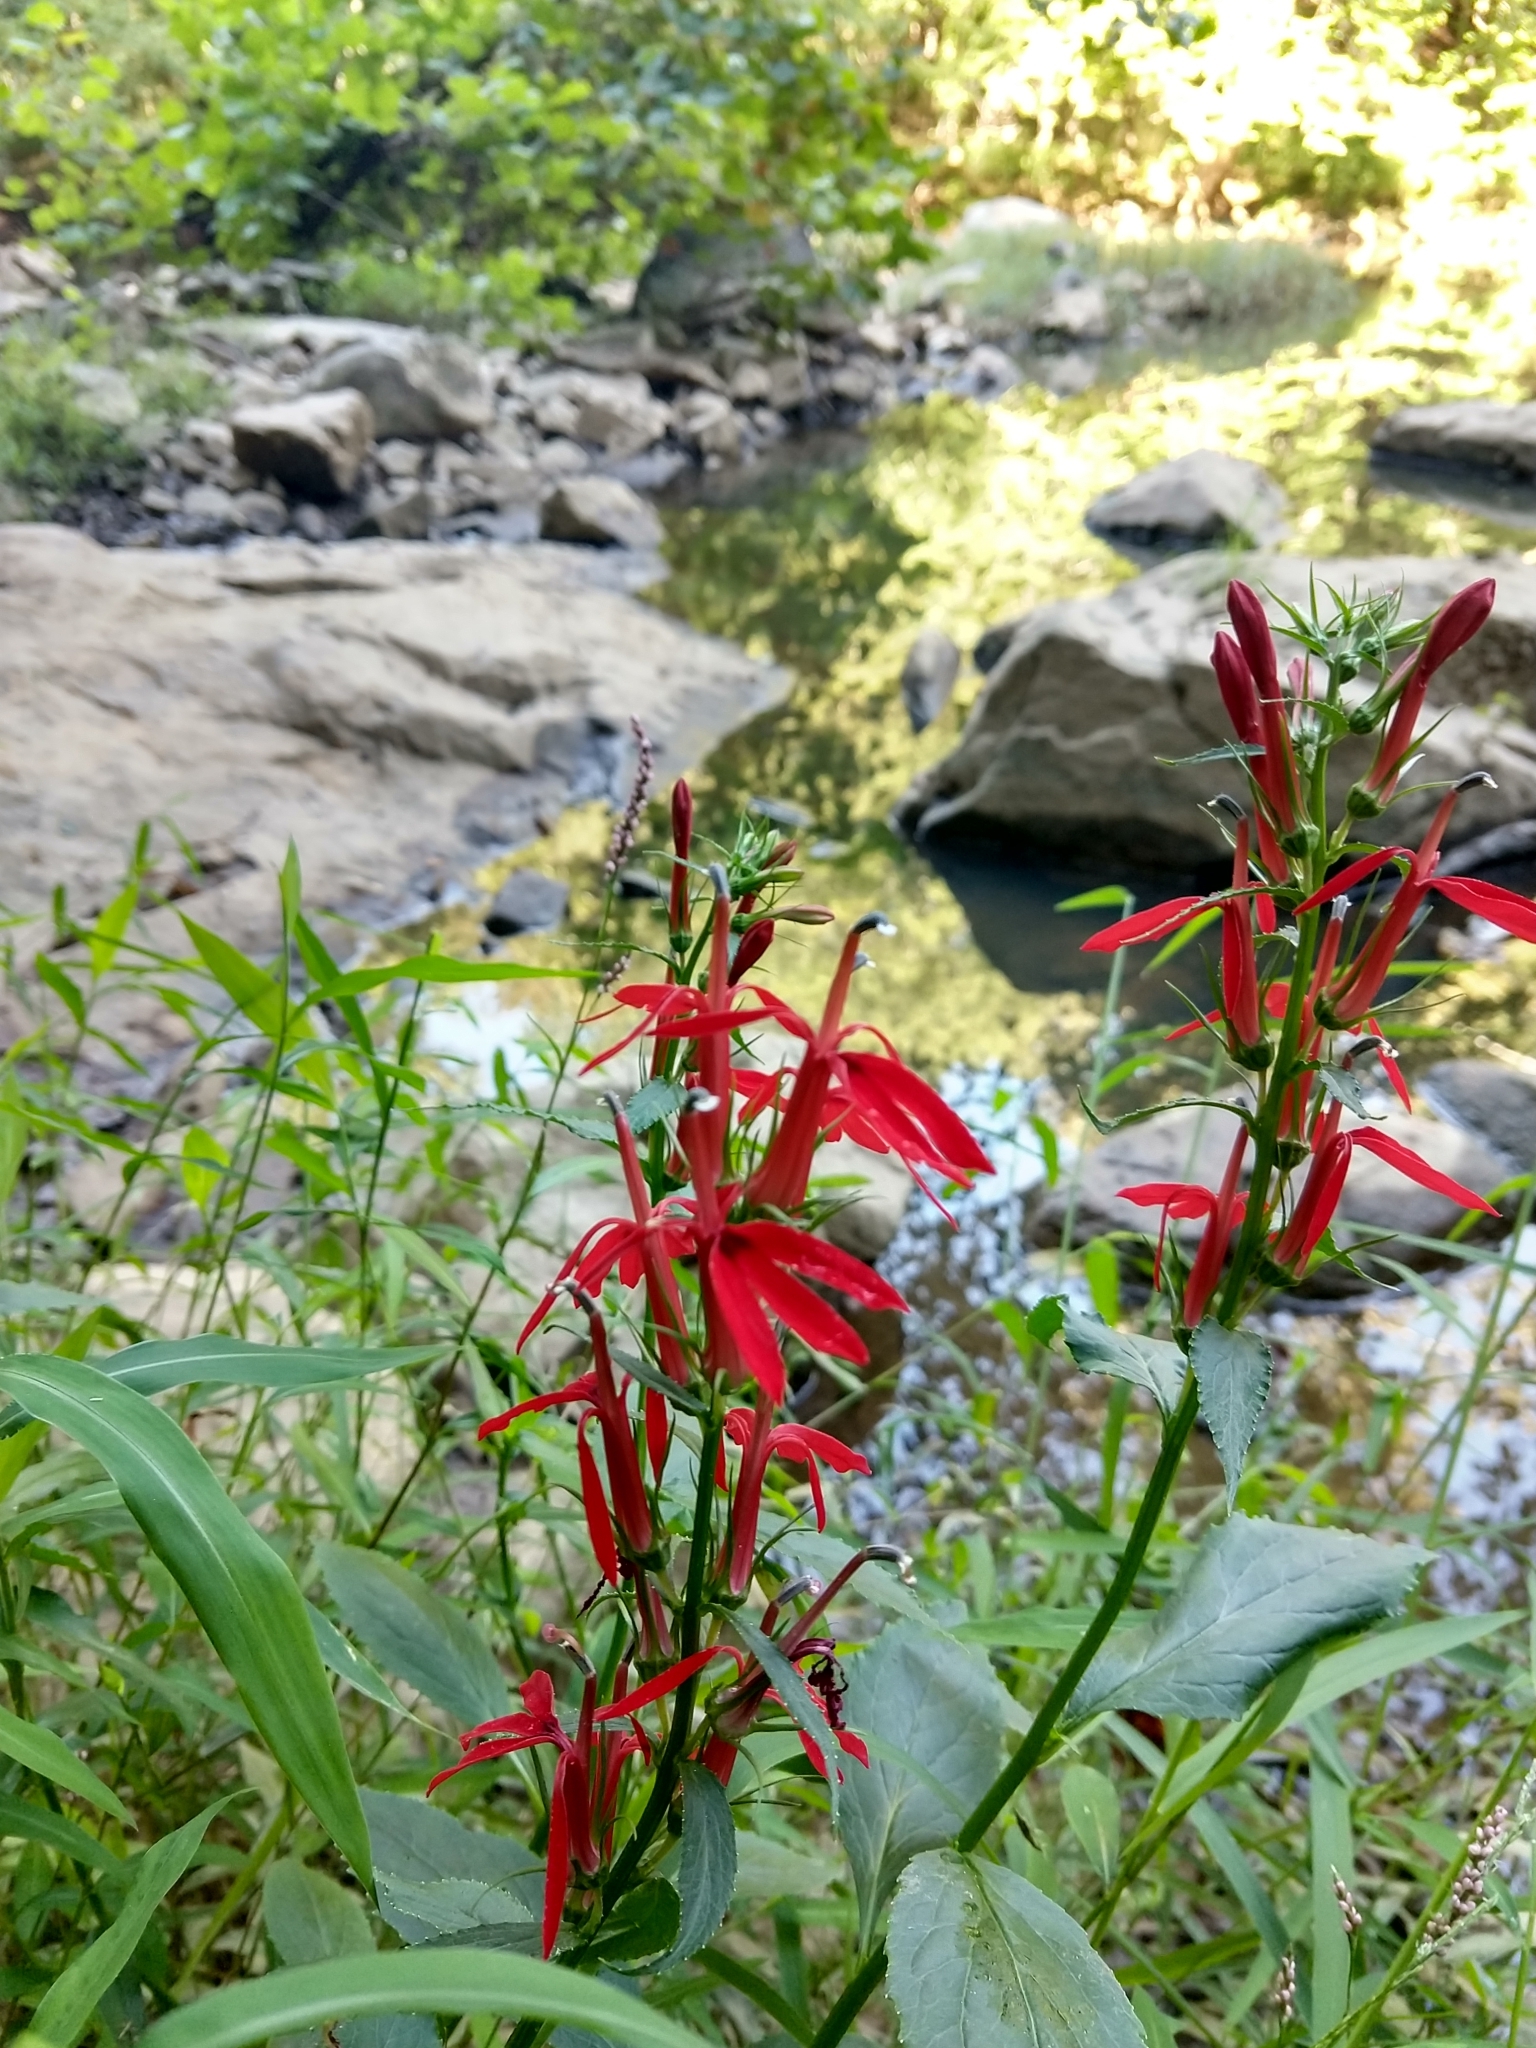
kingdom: Plantae
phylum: Tracheophyta
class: Magnoliopsida
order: Asterales
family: Campanulaceae
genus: Lobelia
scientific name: Lobelia cardinalis
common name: Cardinal flower
